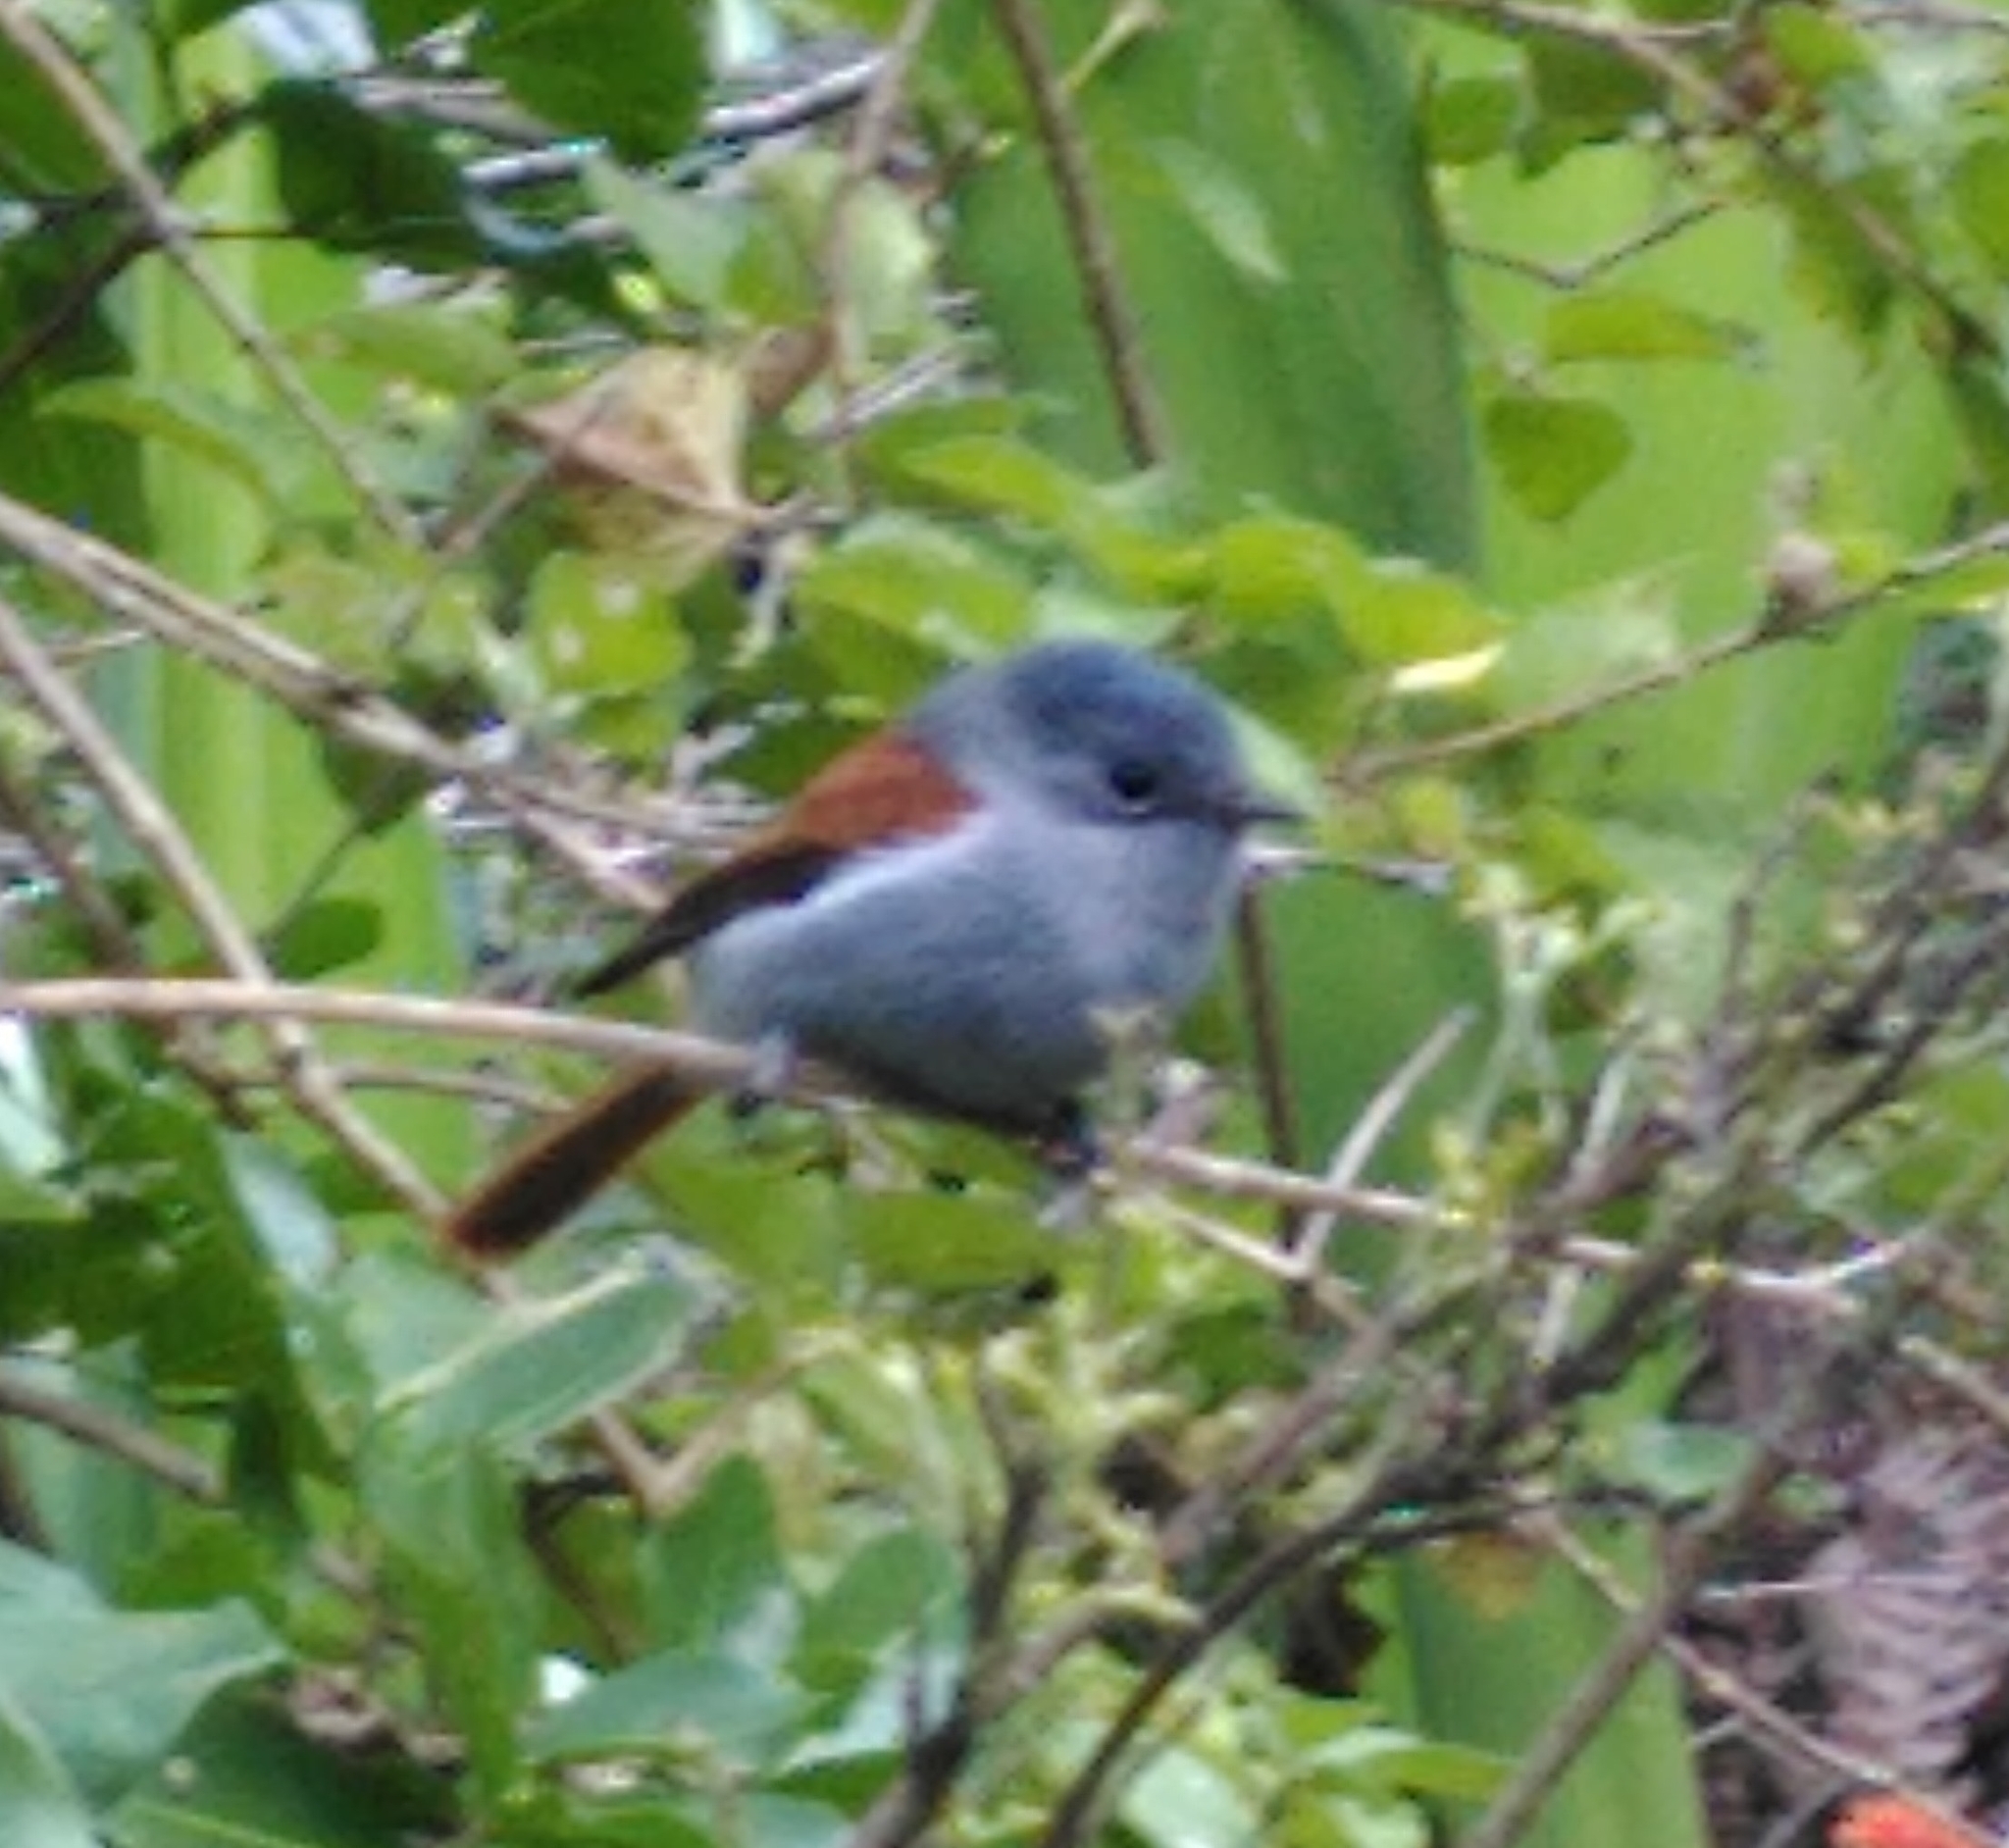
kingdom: Animalia
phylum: Chordata
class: Aves
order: Passeriformes
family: Monarchidae
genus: Terpsiphone
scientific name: Terpsiphone bourbonnensis
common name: Mascarene paradise flycatcher
